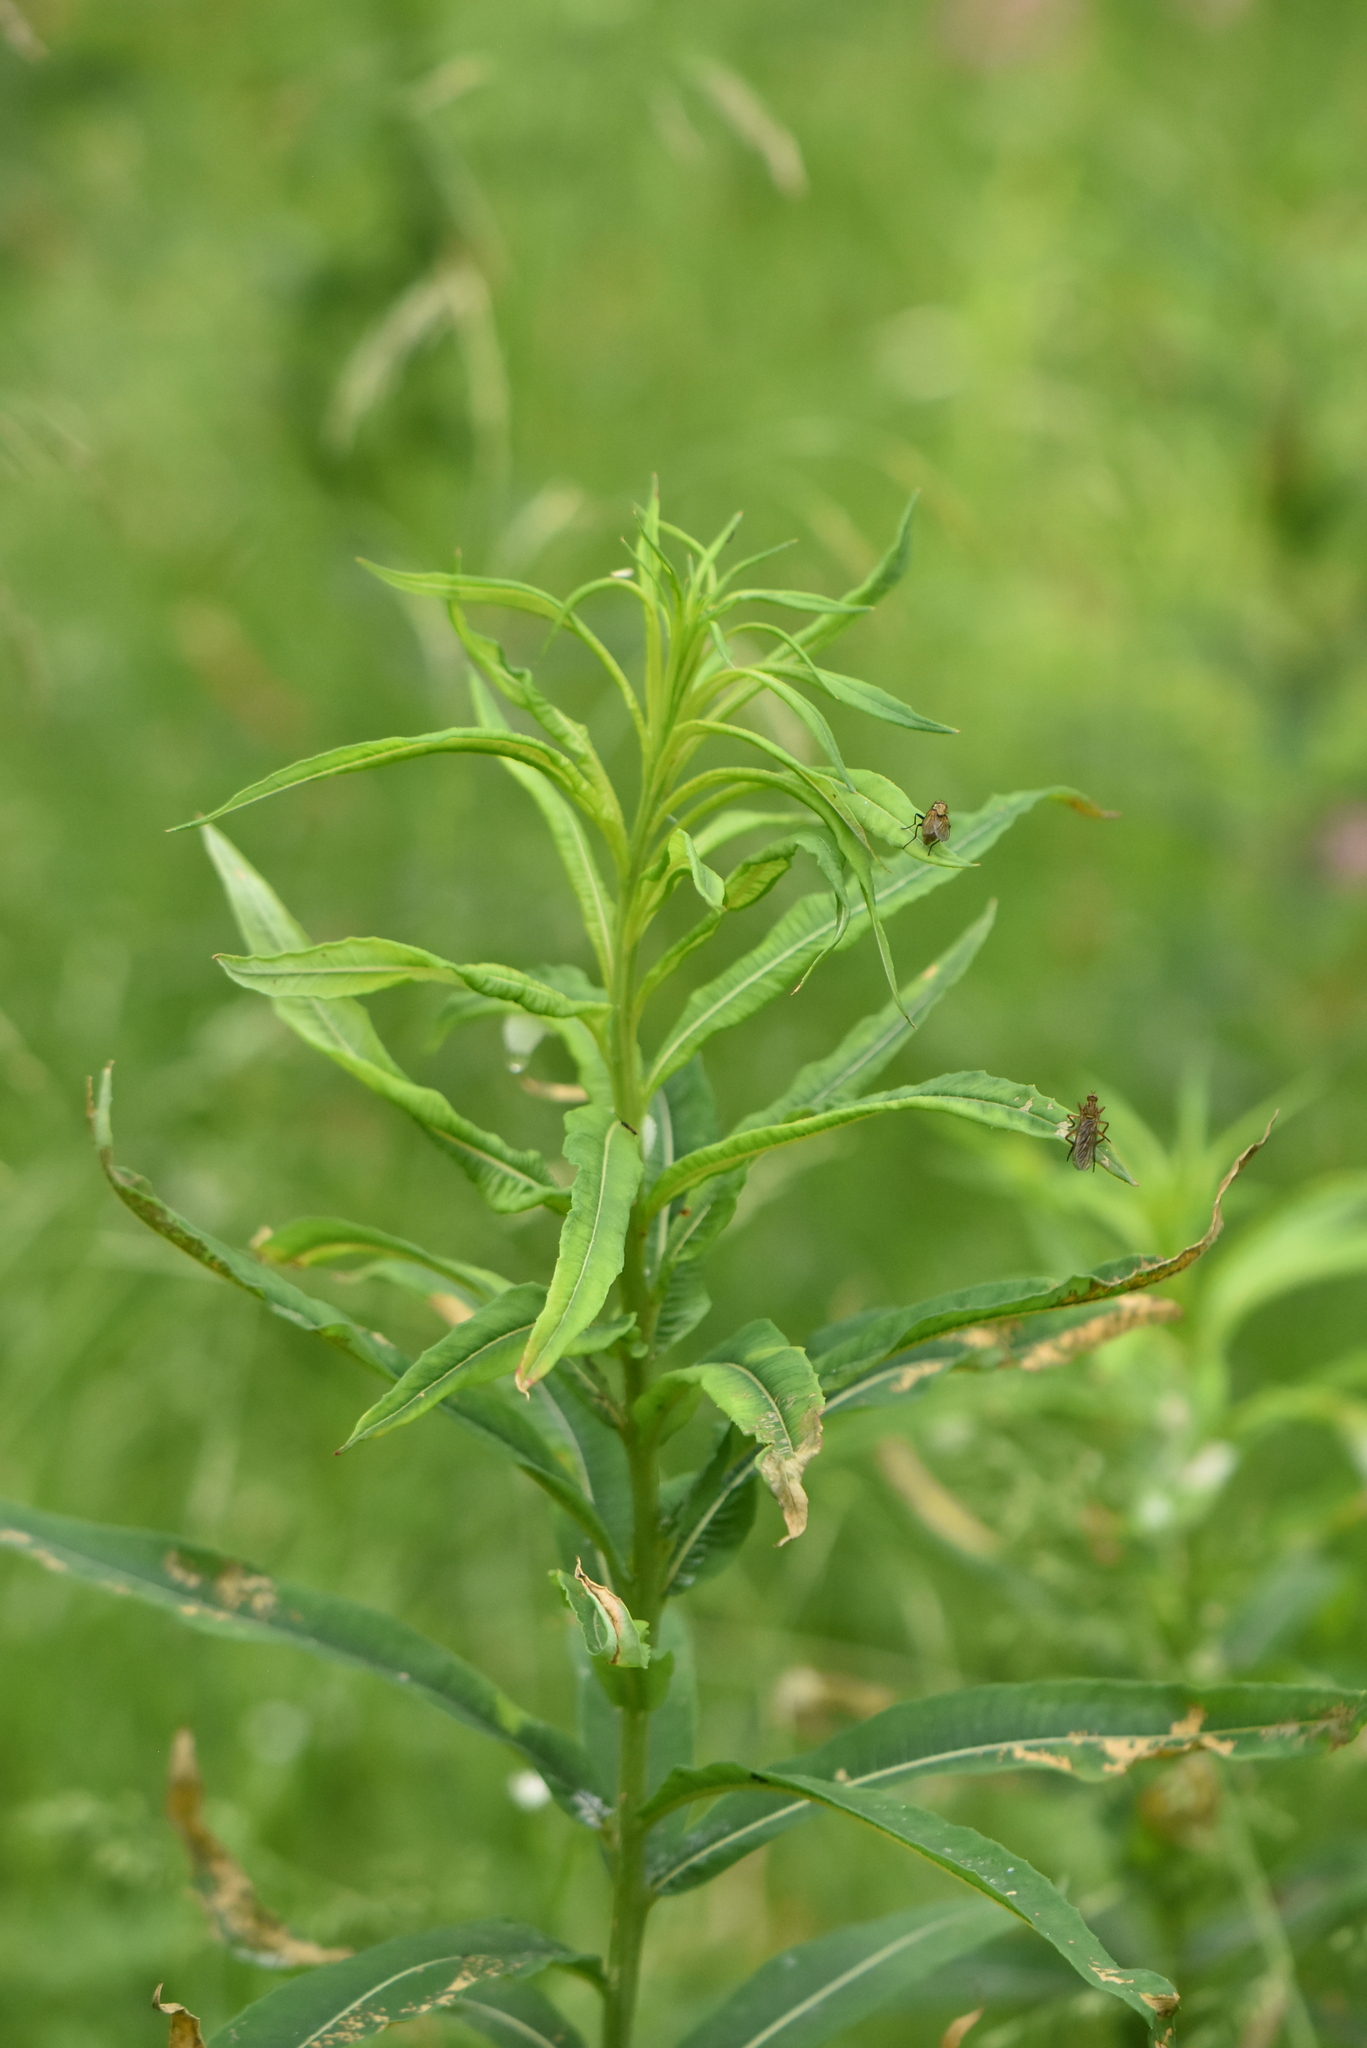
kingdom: Plantae
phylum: Tracheophyta
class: Magnoliopsida
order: Myrtales
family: Onagraceae
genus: Chamaenerion
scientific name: Chamaenerion angustifolium
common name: Fireweed
